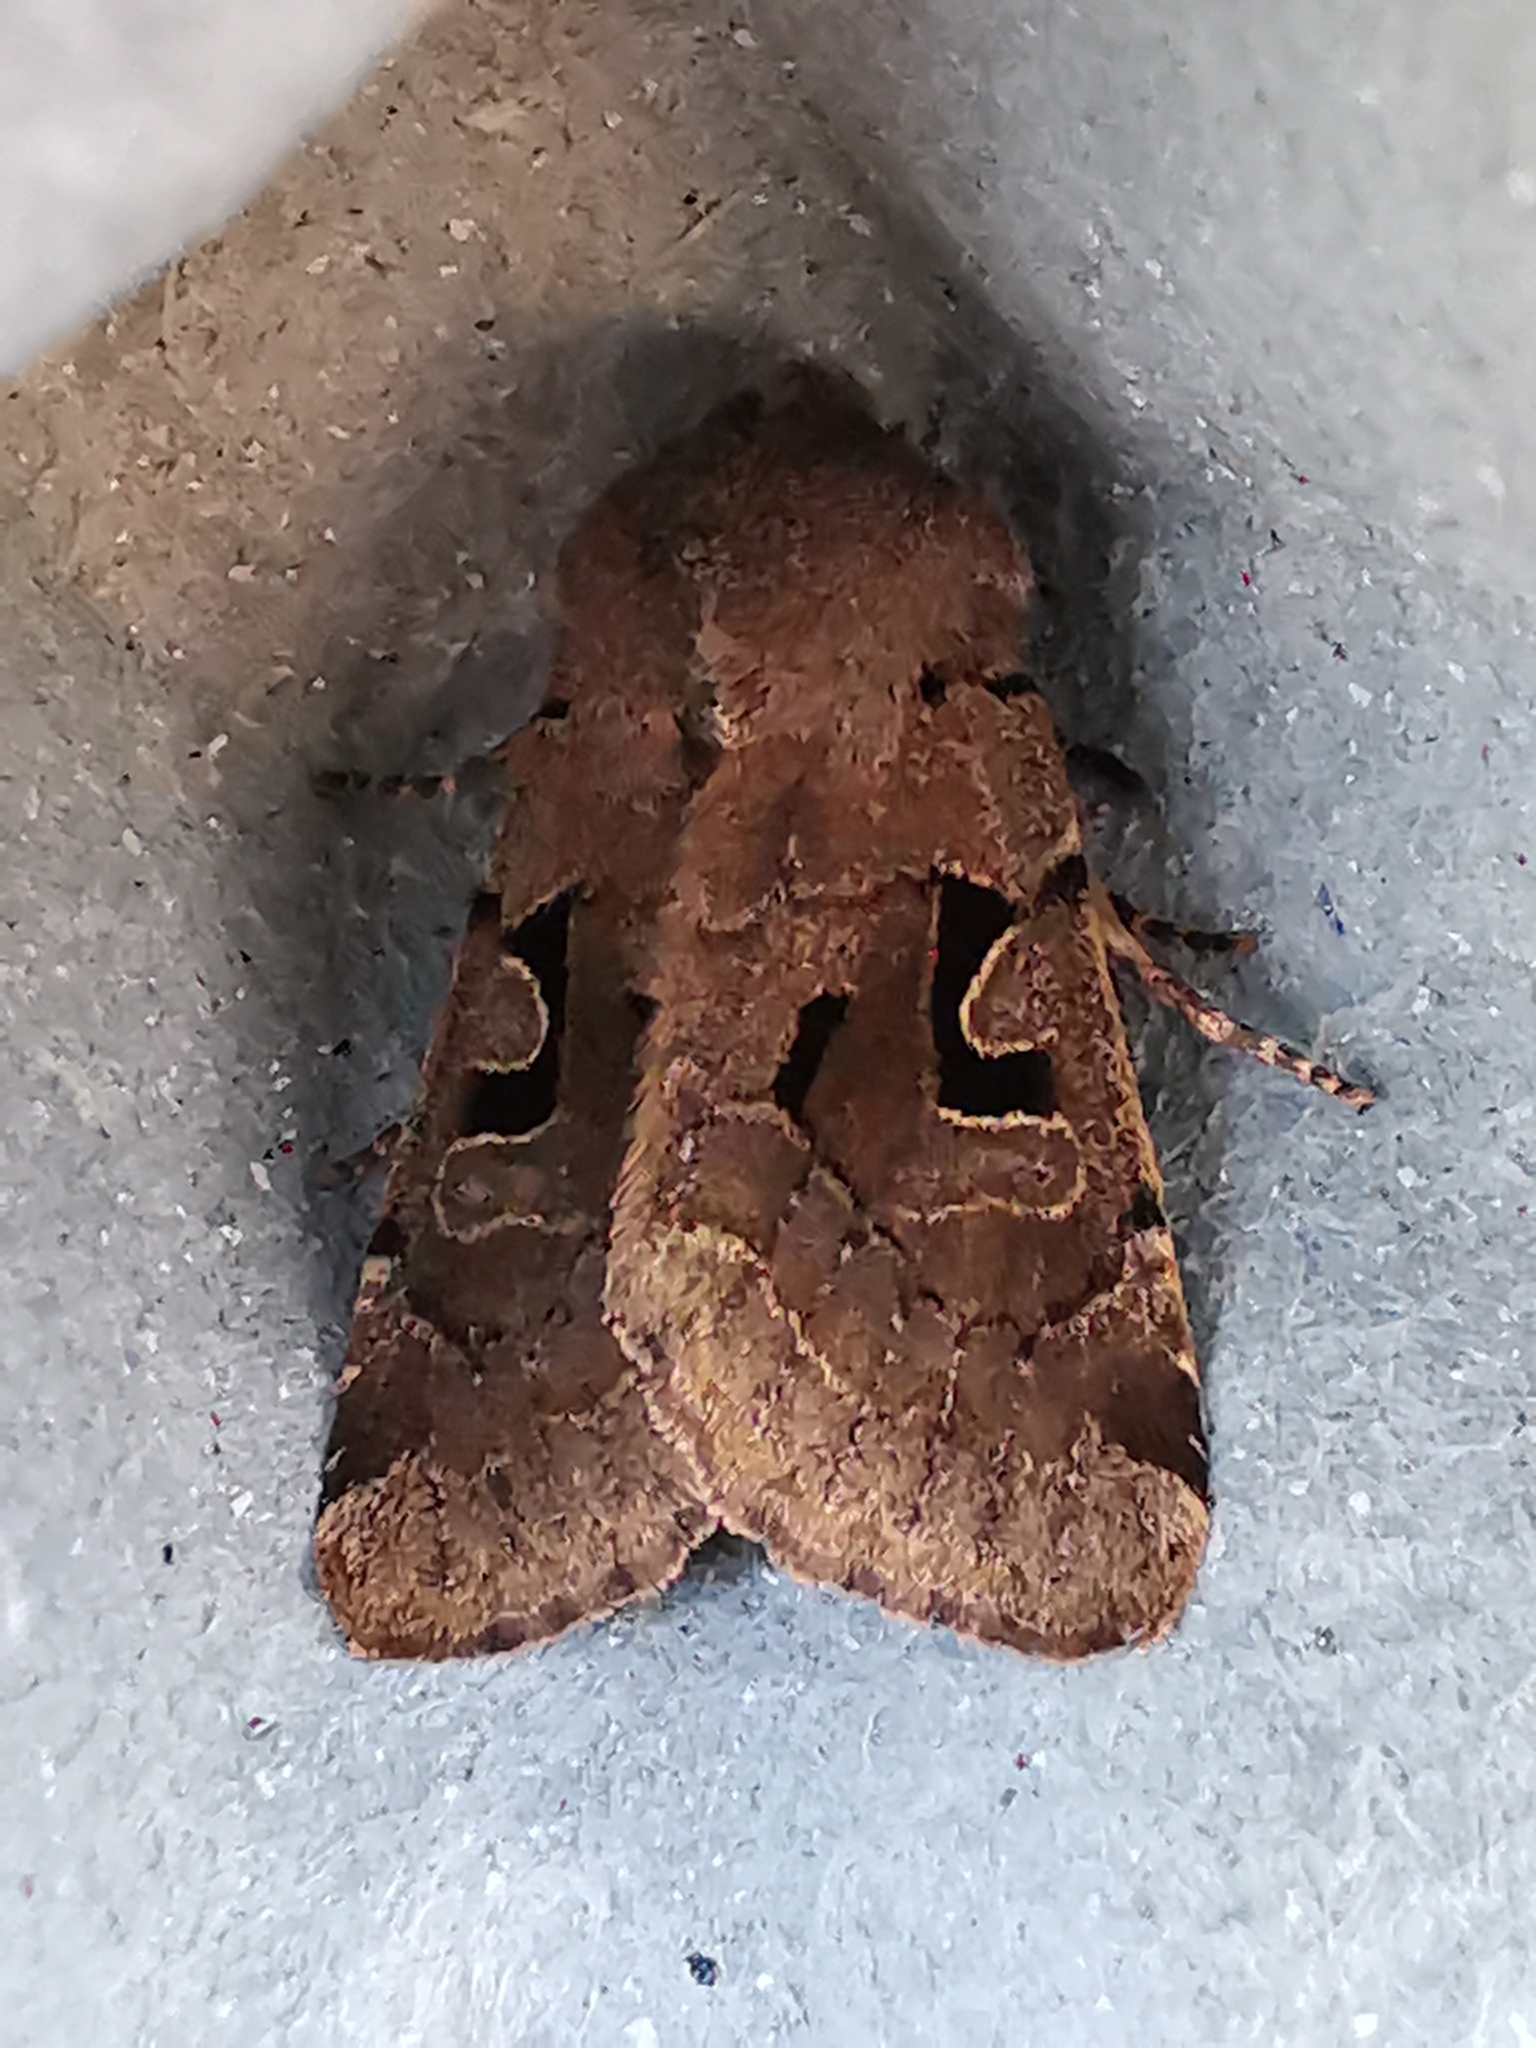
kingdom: Animalia
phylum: Arthropoda
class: Insecta
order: Lepidoptera
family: Noctuidae
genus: Orthosia
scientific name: Orthosia gothica
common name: Hebrew character
